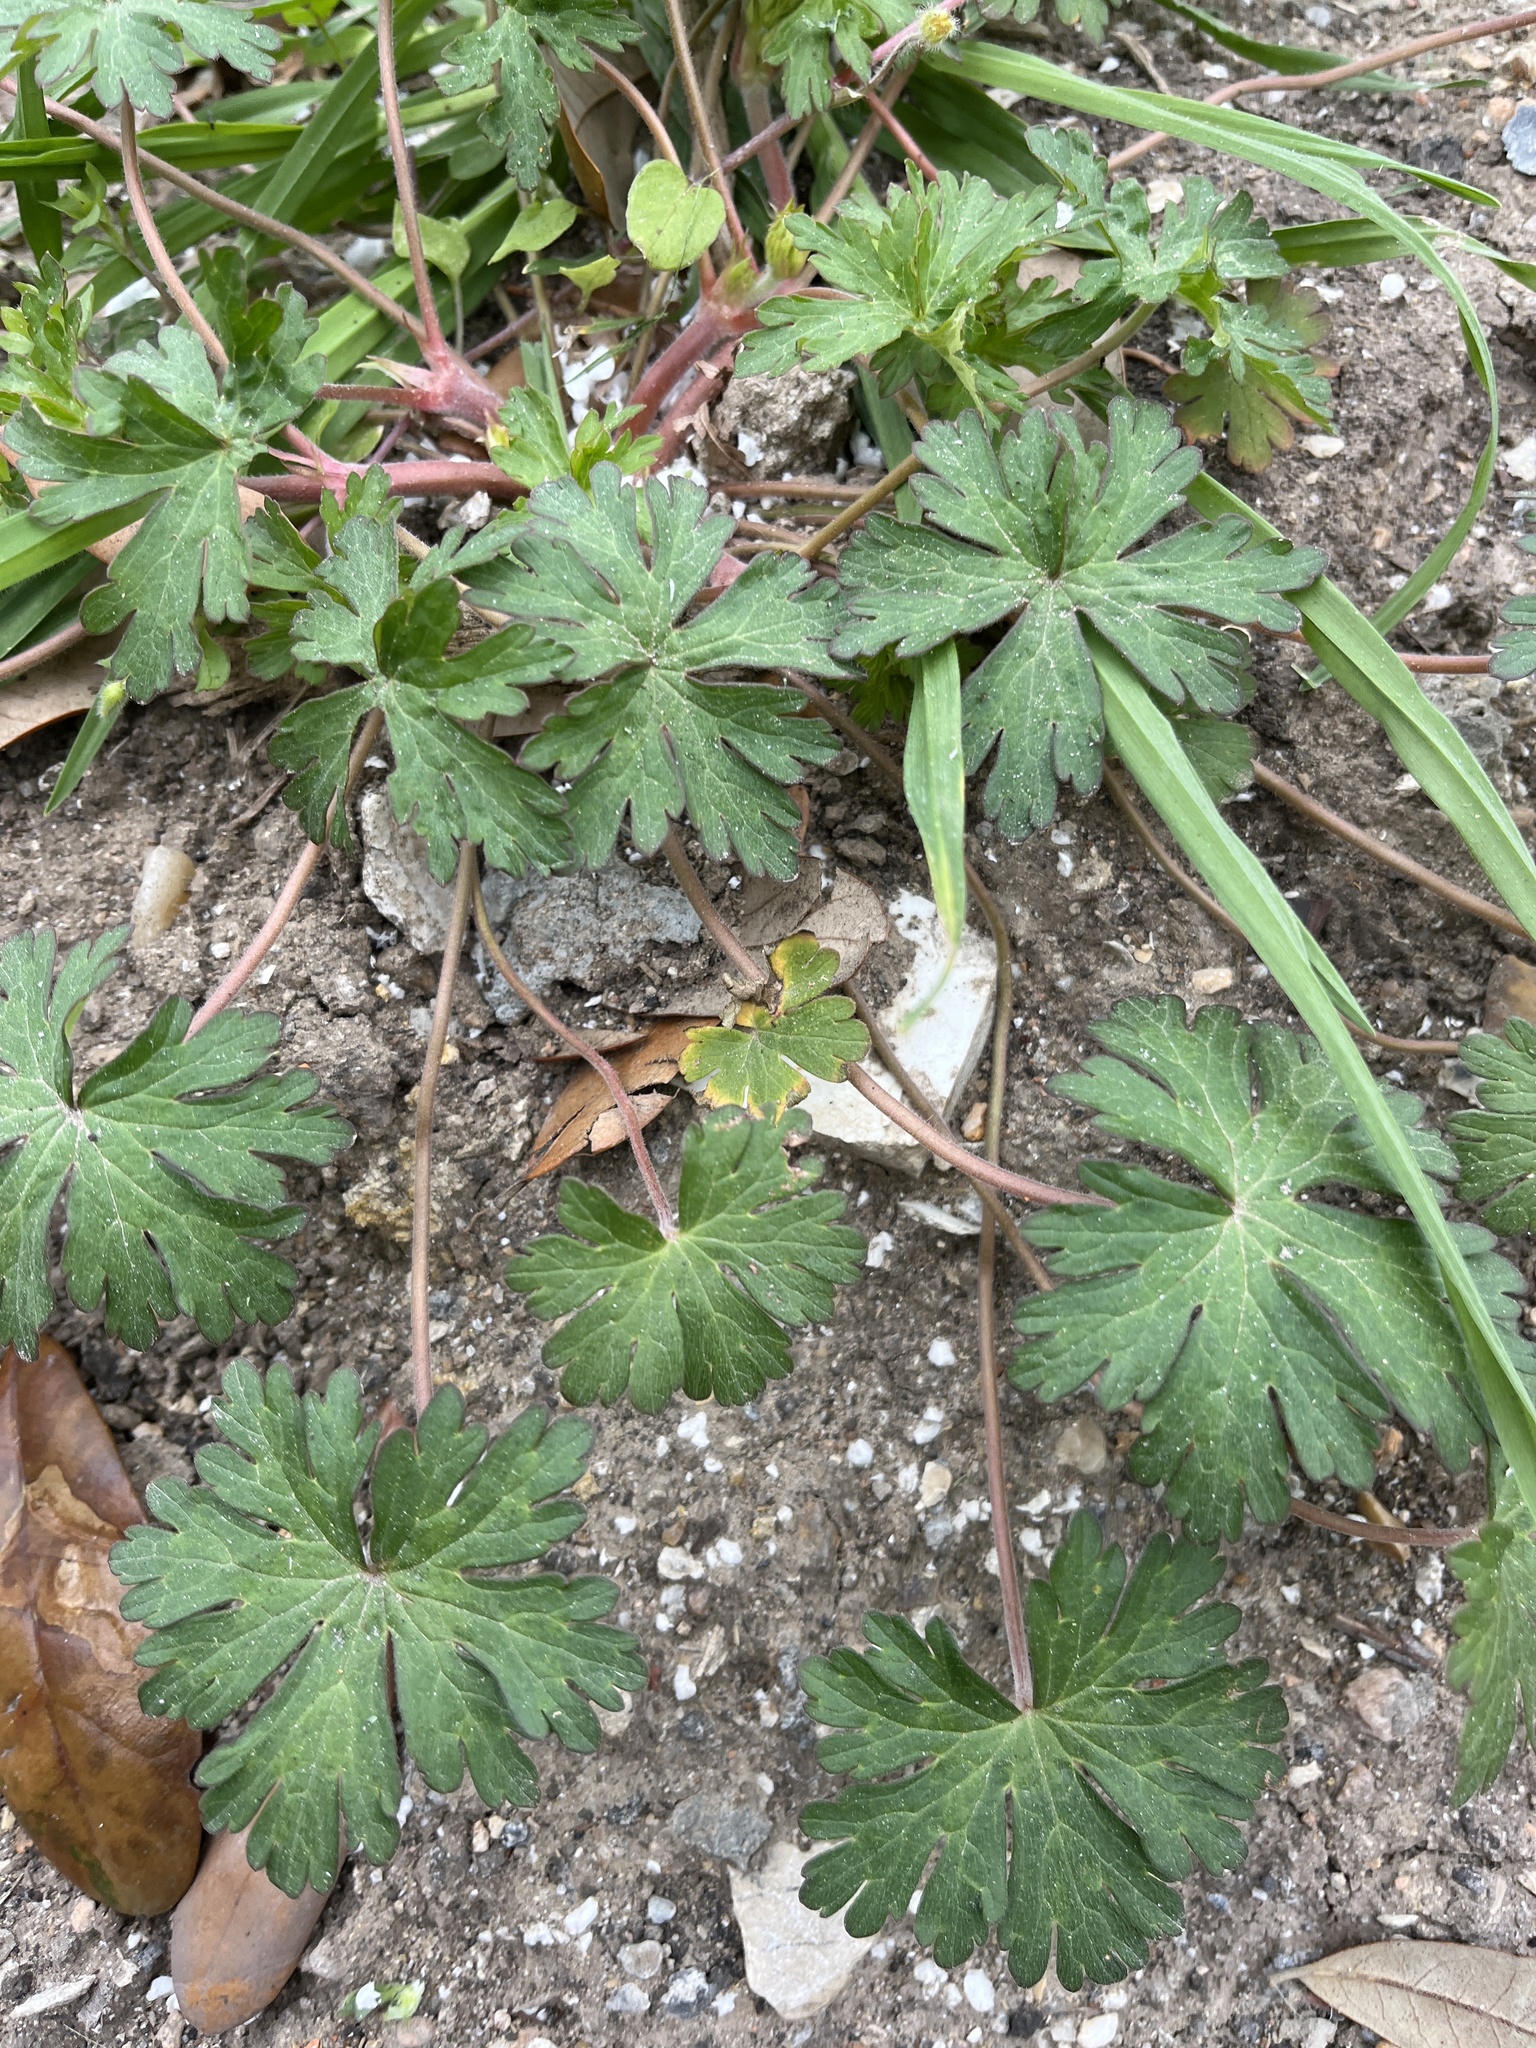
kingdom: Plantae
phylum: Tracheophyta
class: Magnoliopsida
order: Geraniales
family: Geraniaceae
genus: Geranium
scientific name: Geranium carolinianum
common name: Carolina crane's-bill
